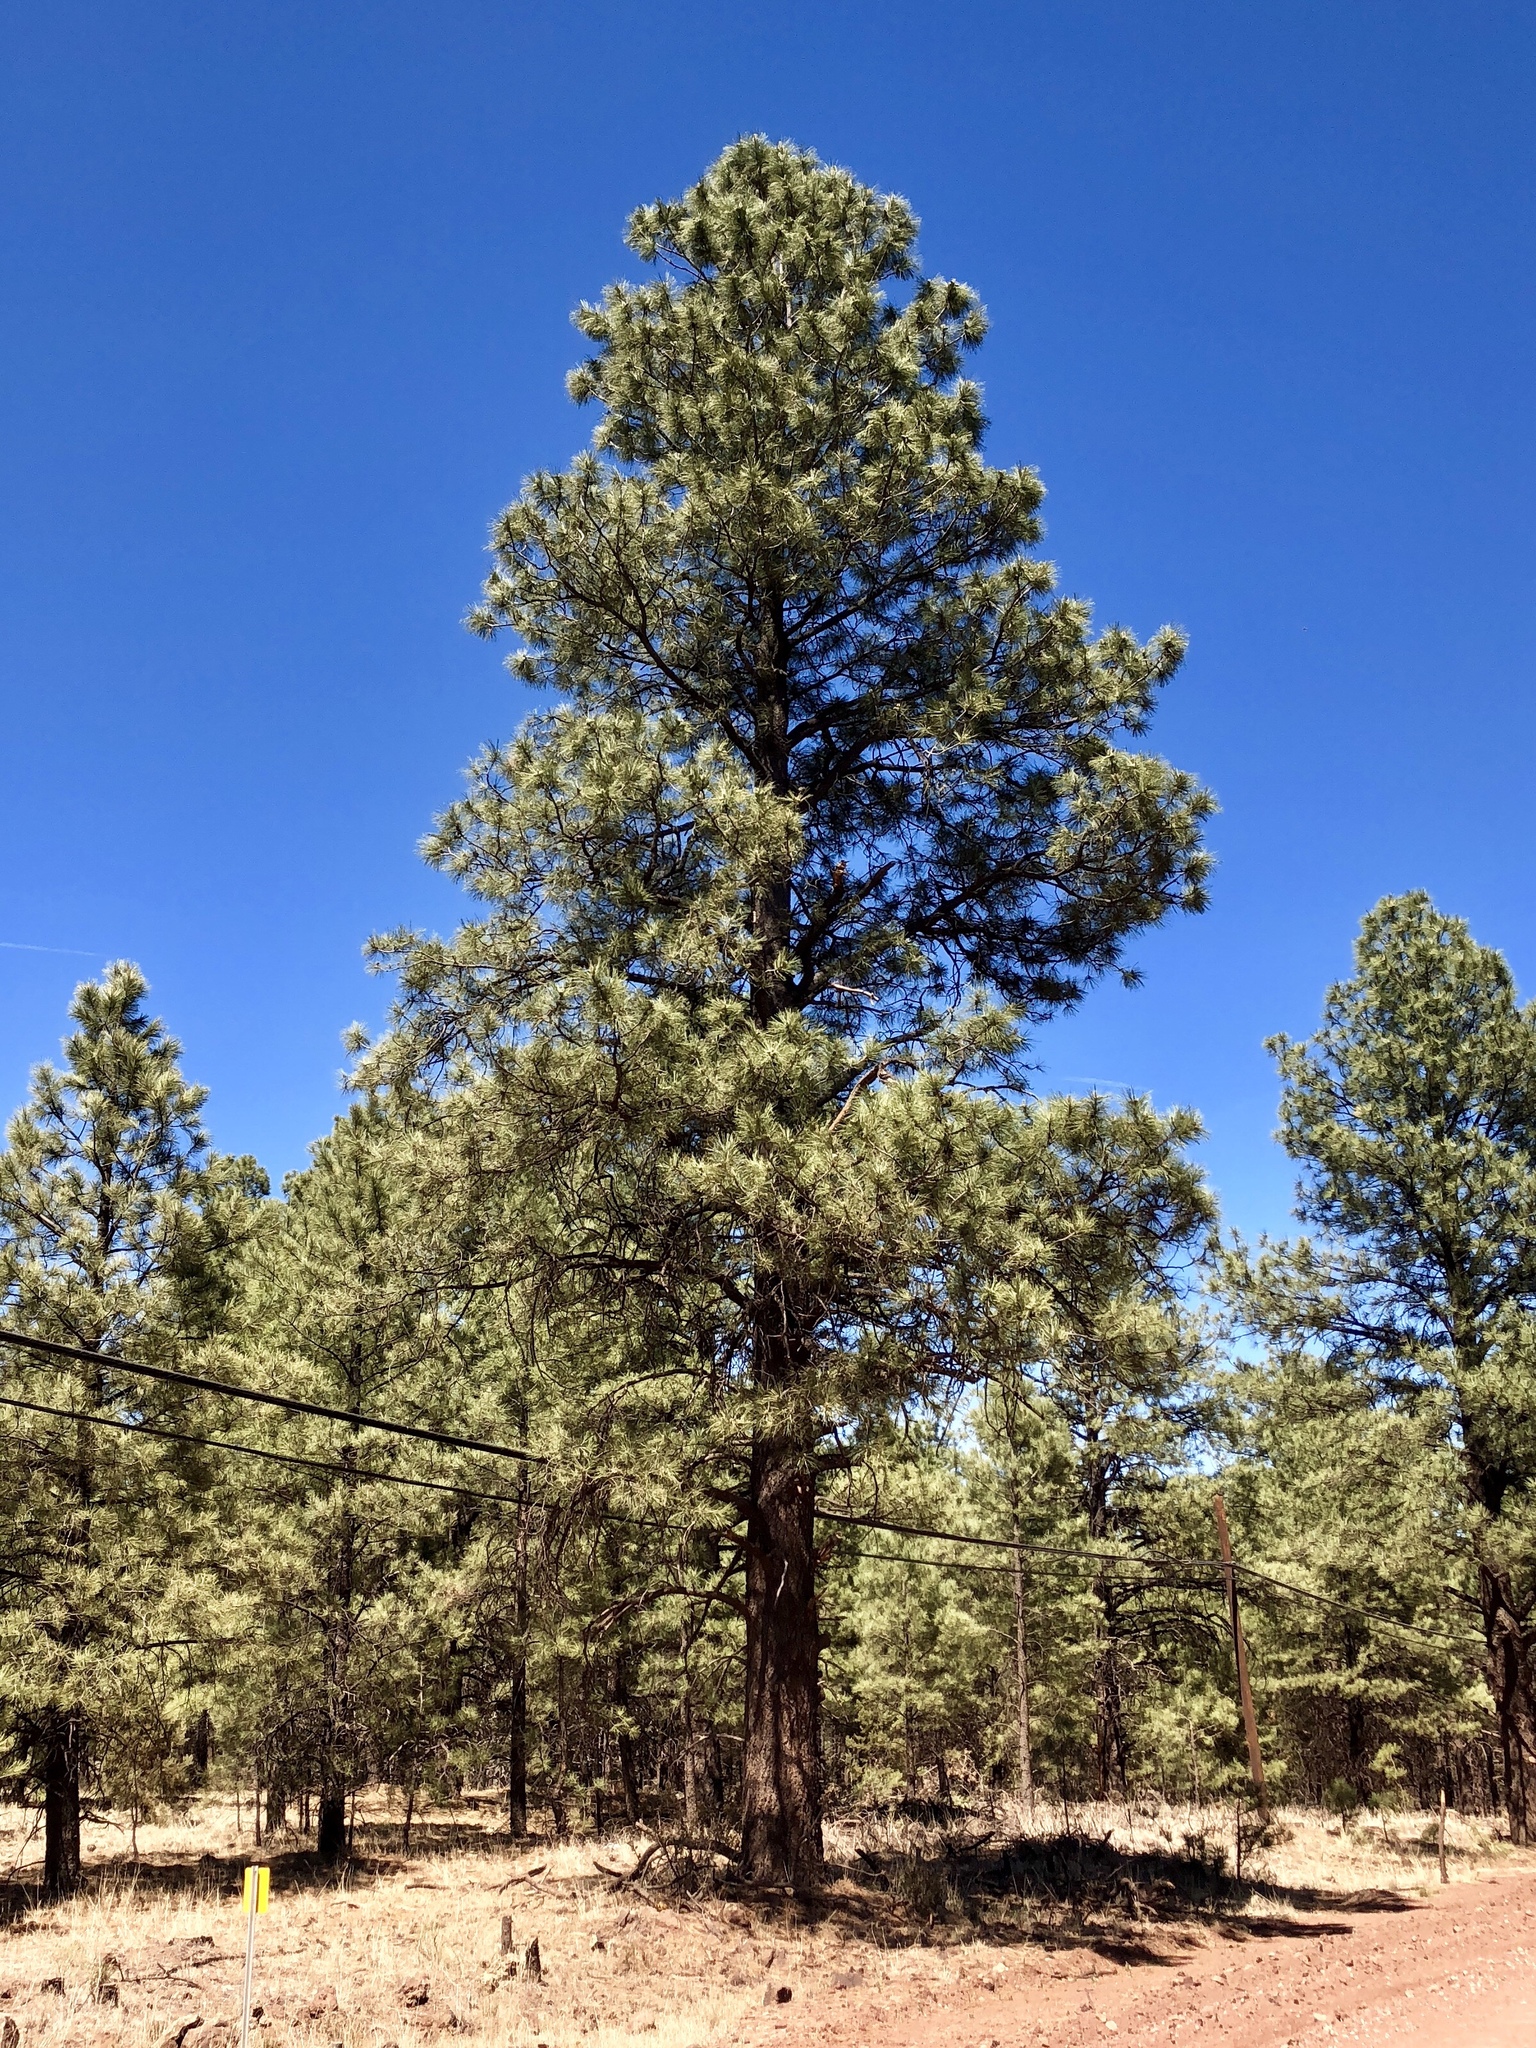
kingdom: Plantae
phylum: Tracheophyta
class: Pinopsida
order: Pinales
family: Pinaceae
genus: Pinus
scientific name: Pinus ponderosa
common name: Western yellow-pine
